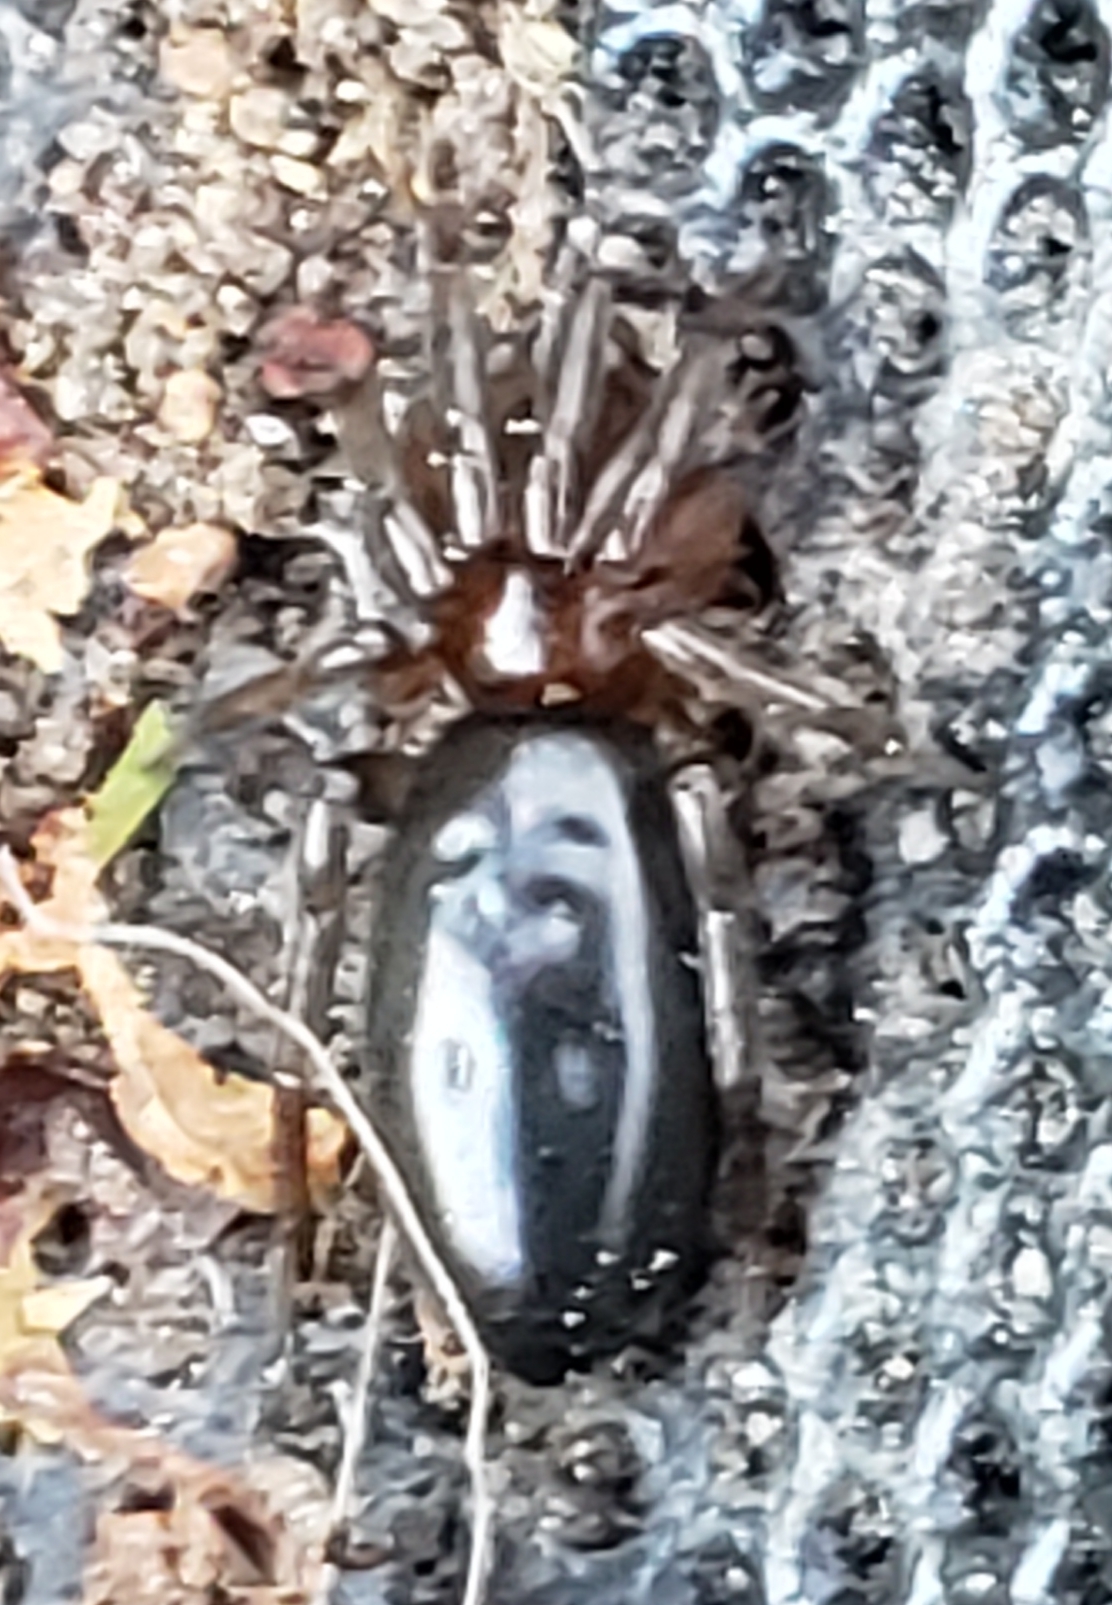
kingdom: Animalia
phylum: Arthropoda
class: Arachnida
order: Araneae
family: Theridiidae
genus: Steatoda
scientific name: Steatoda grossa
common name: False black widow
